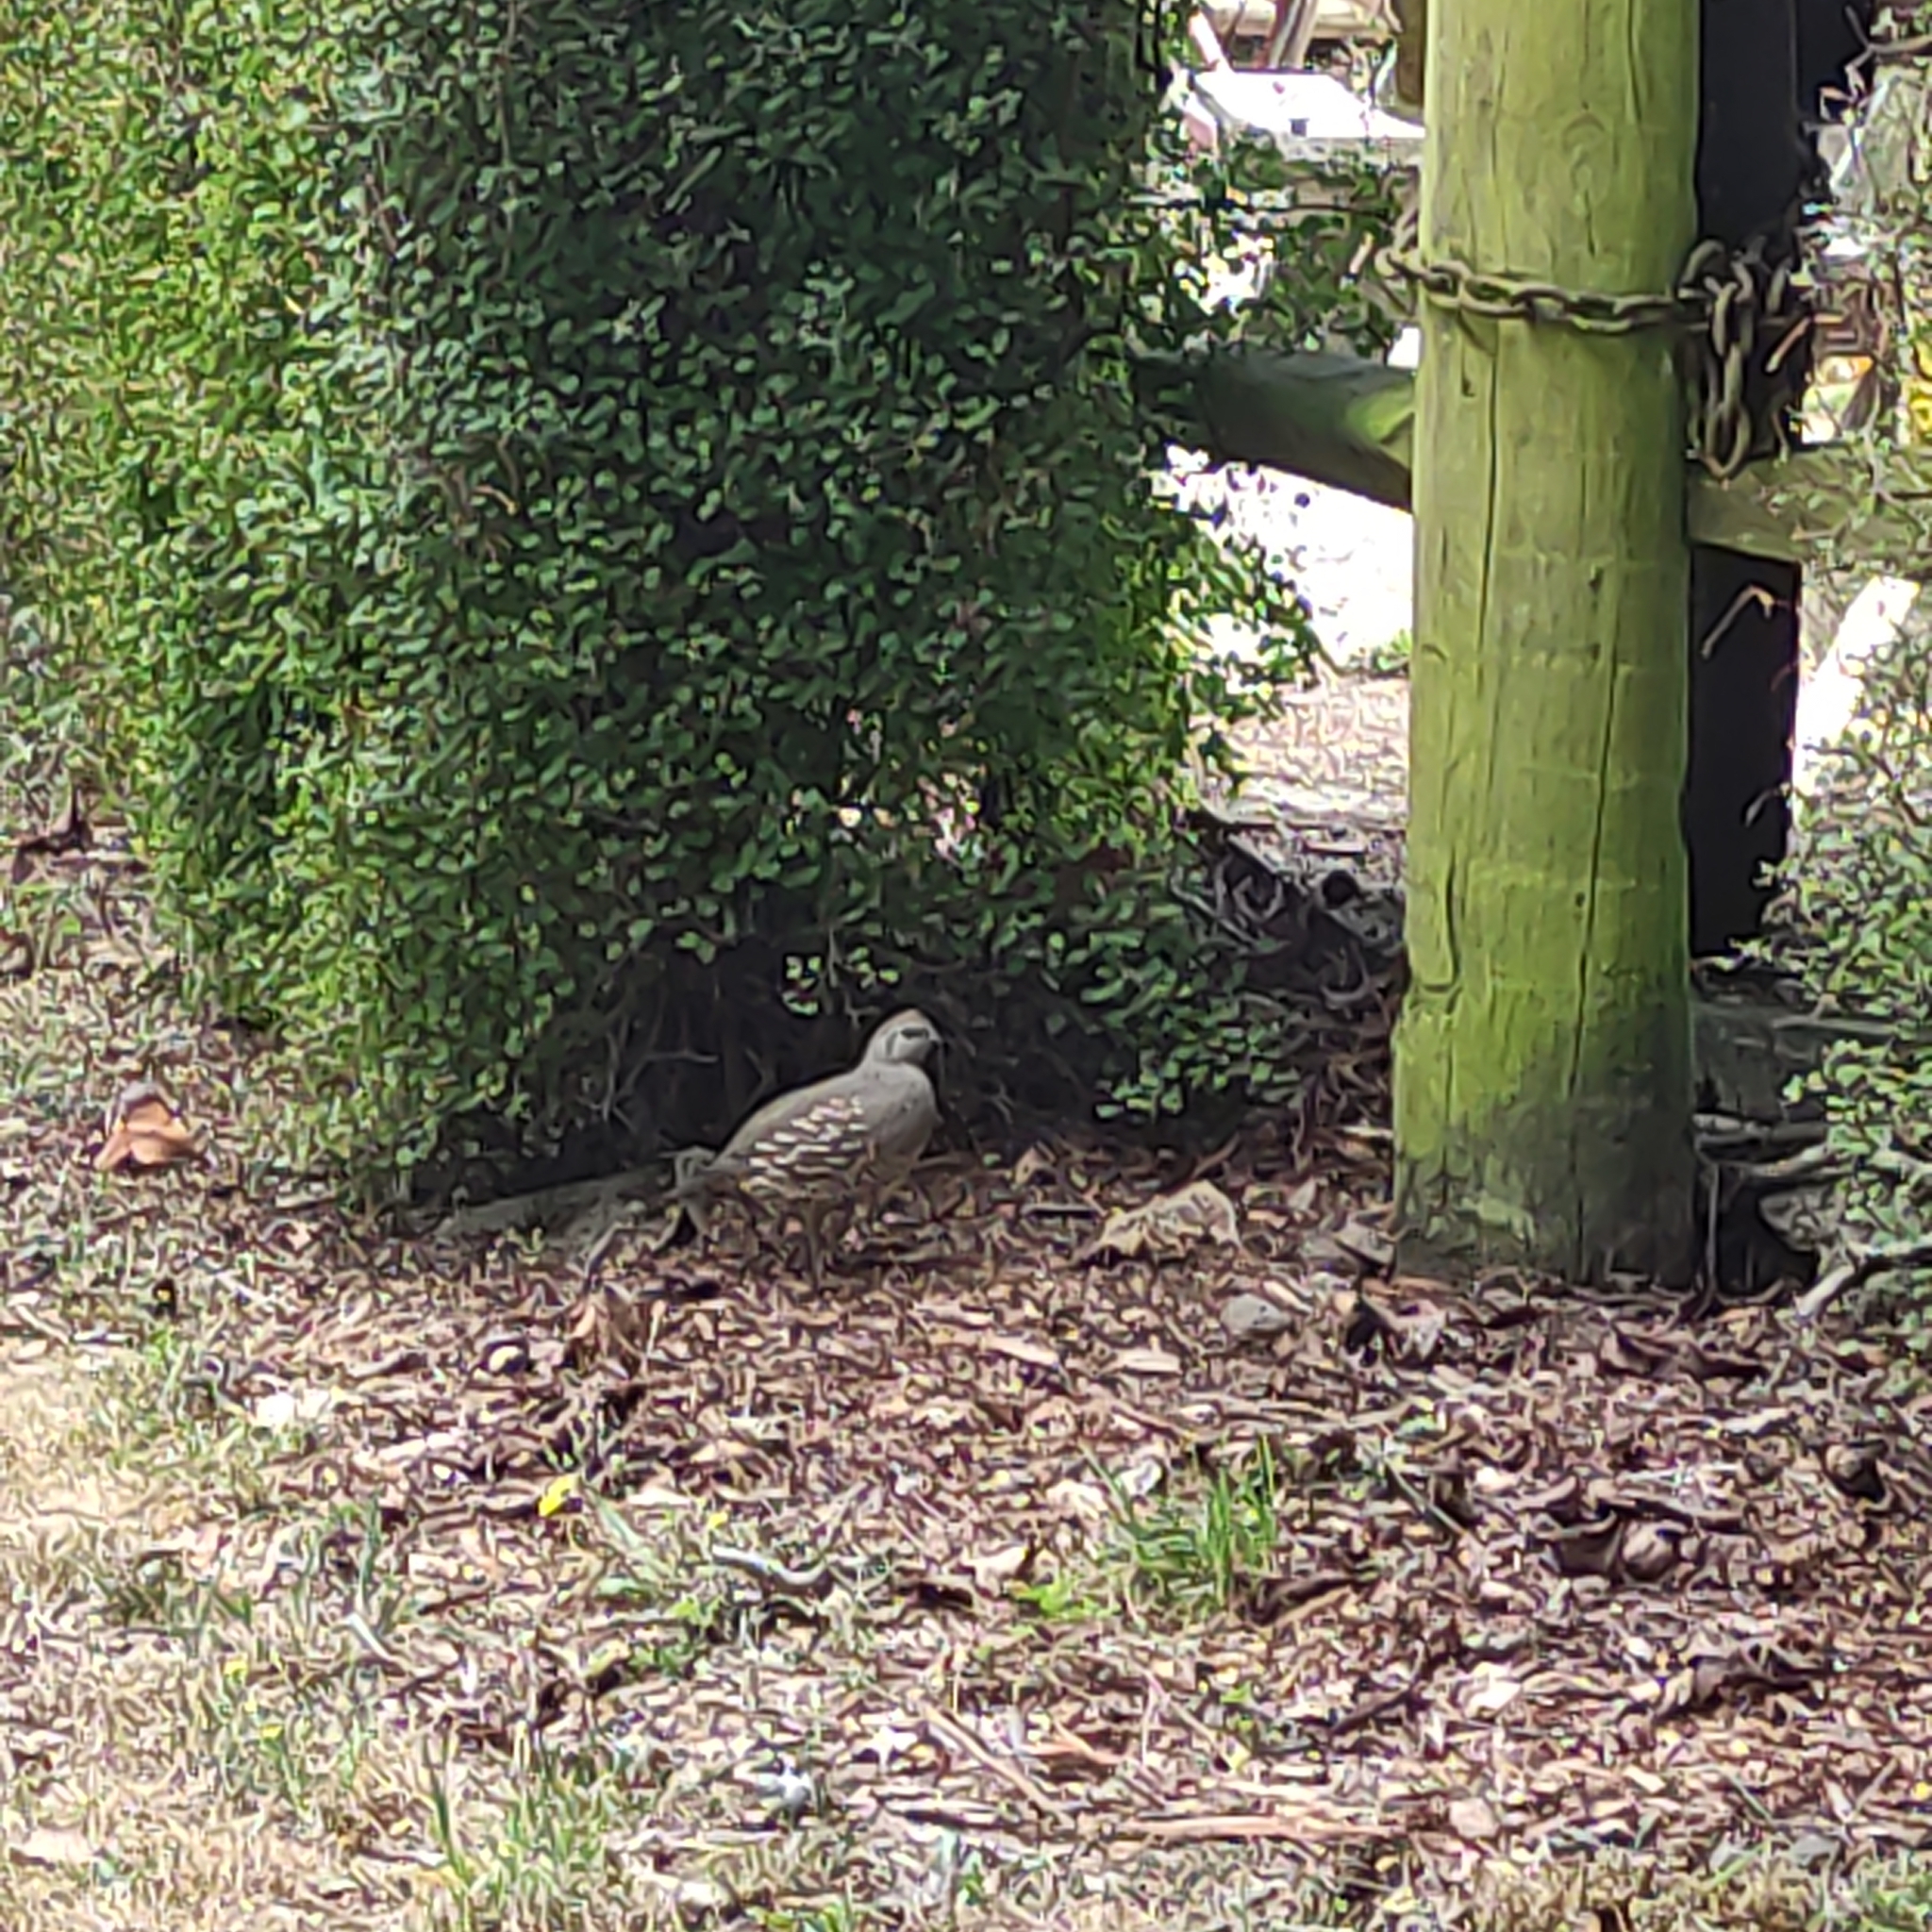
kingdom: Animalia
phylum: Chordata
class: Aves
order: Galliformes
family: Odontophoridae
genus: Callipepla
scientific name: Callipepla californica
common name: California quail
